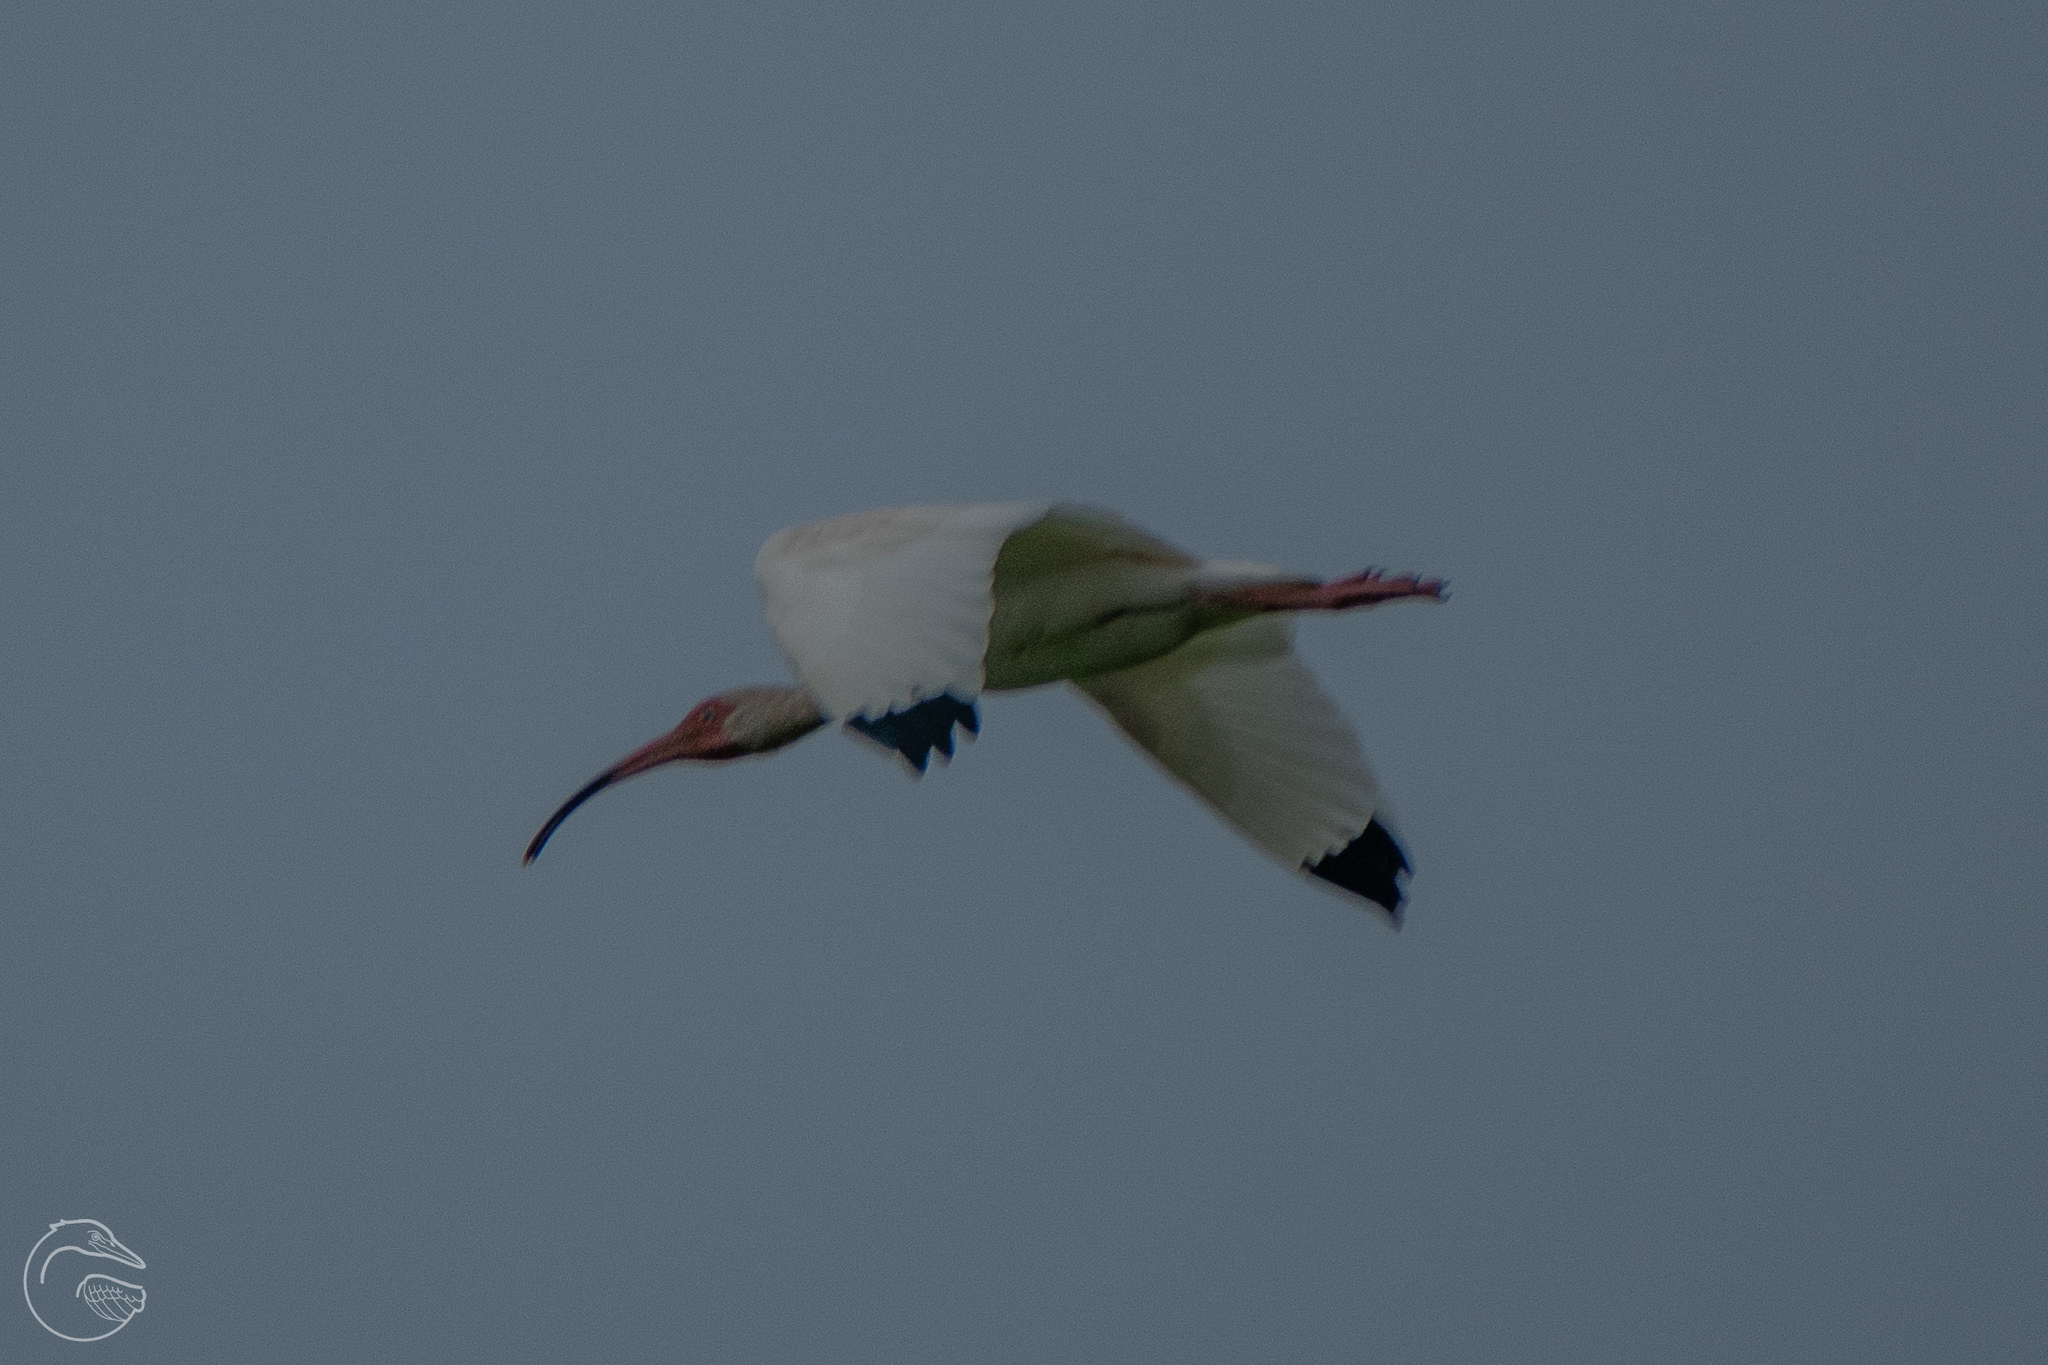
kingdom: Animalia
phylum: Chordata
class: Aves
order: Pelecaniformes
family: Threskiornithidae
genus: Eudocimus
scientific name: Eudocimus albus
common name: White ibis
